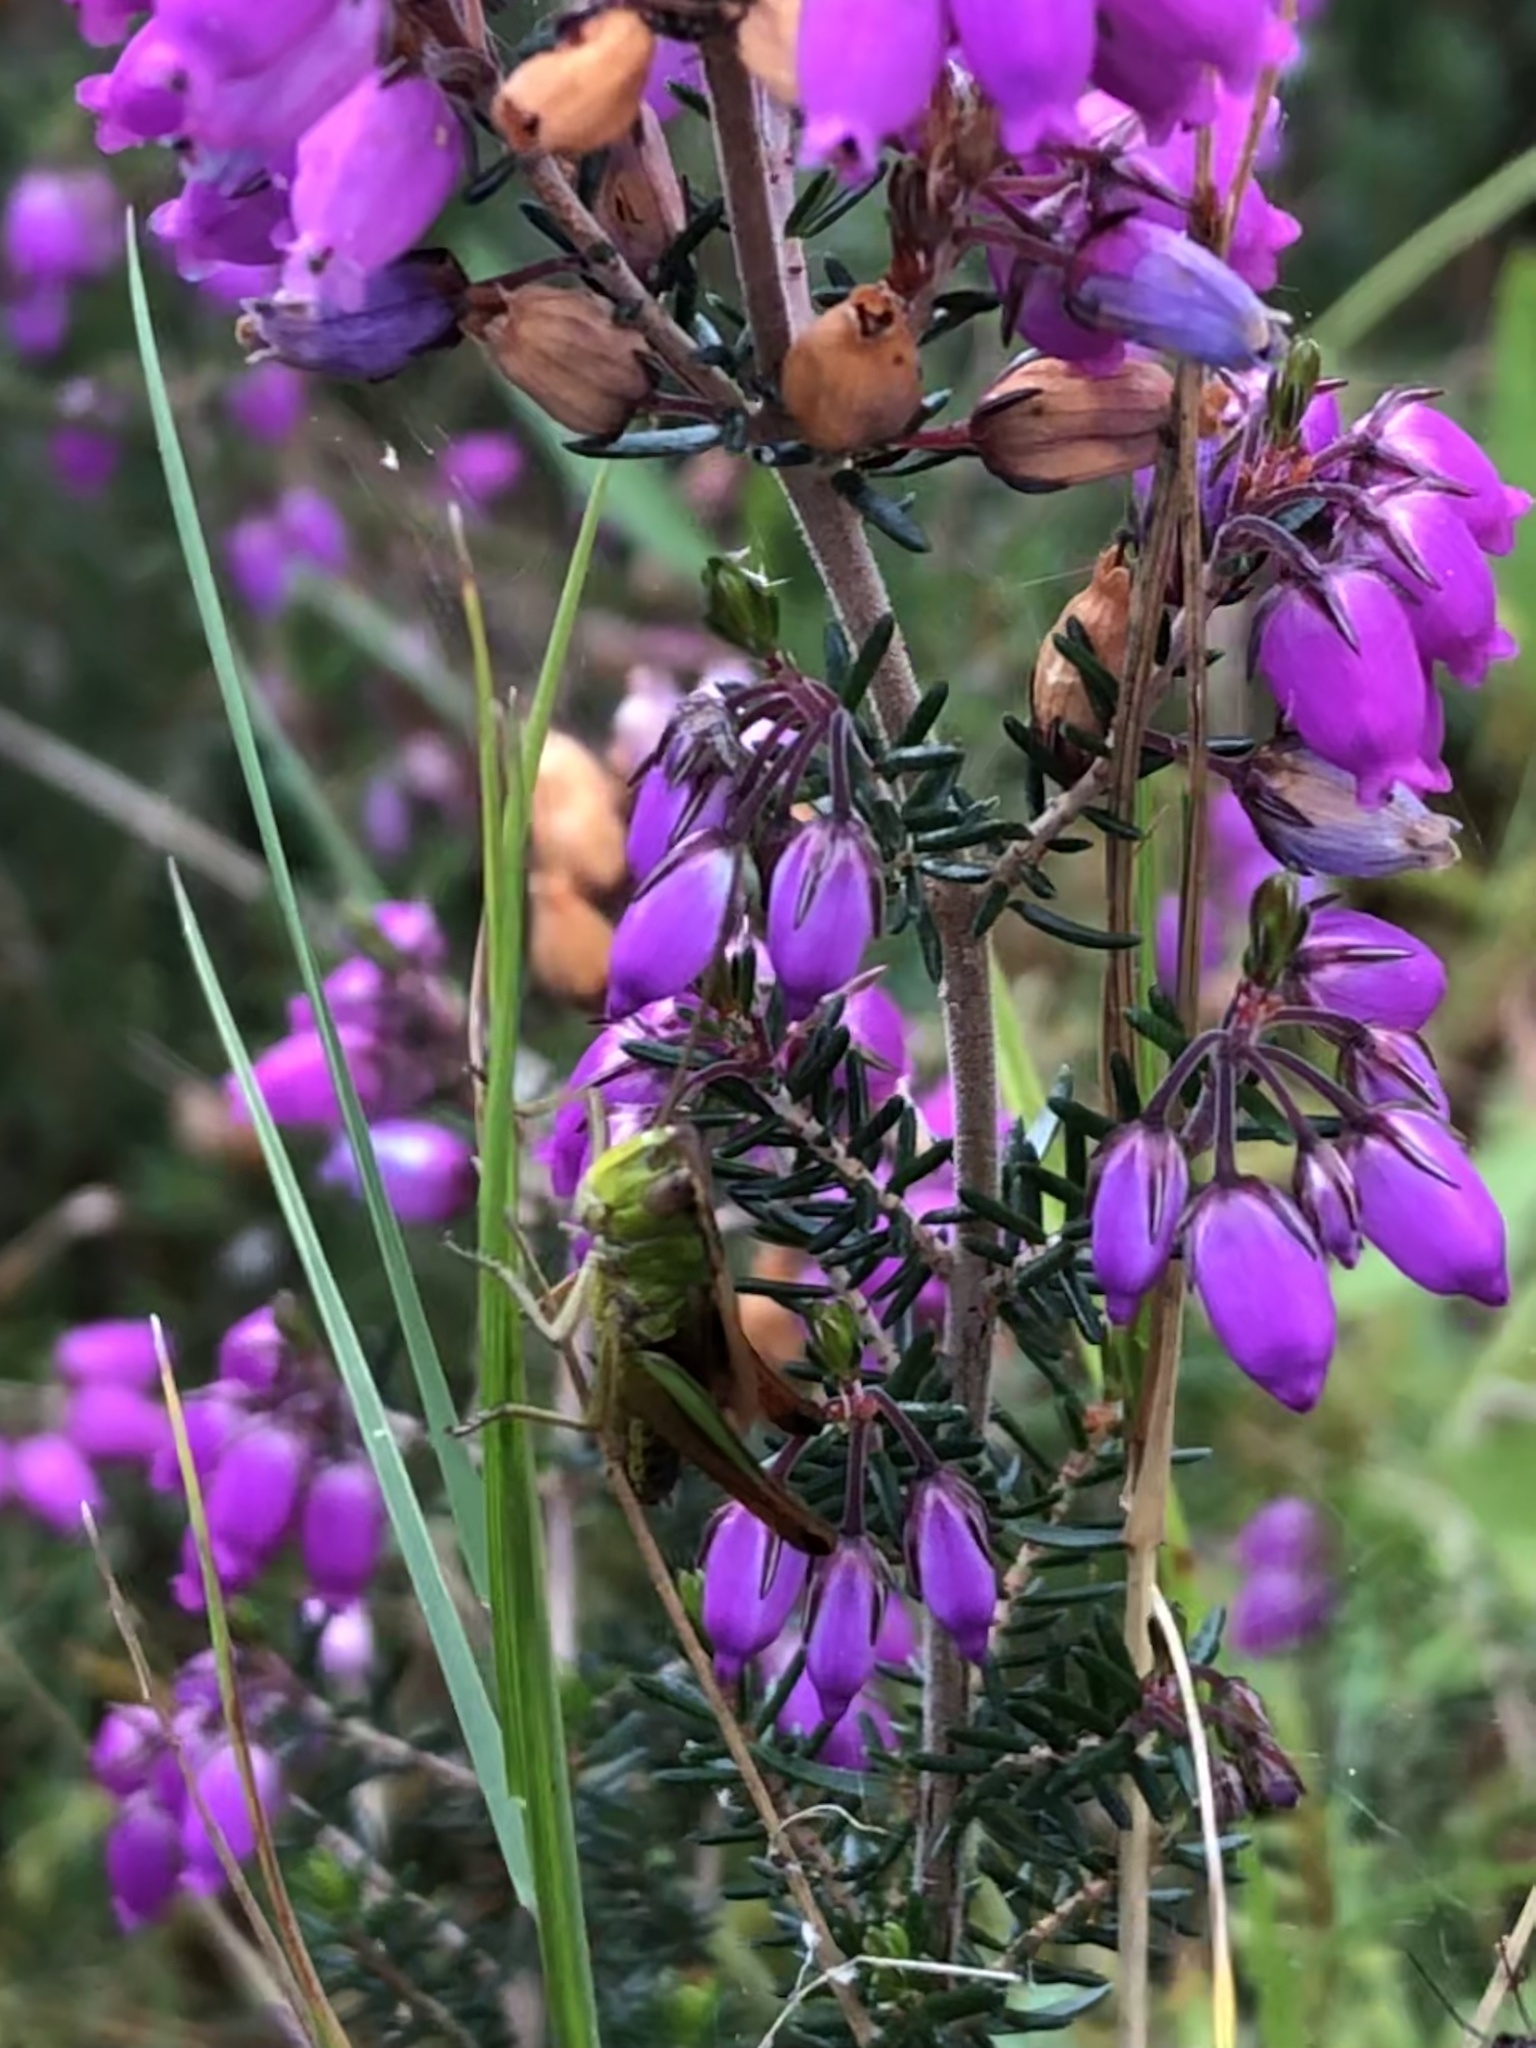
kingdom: Animalia
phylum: Arthropoda
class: Insecta
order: Orthoptera
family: Acrididae
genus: Pseudochorthippus
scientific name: Pseudochorthippus parallelus
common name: Meadow grasshopper
